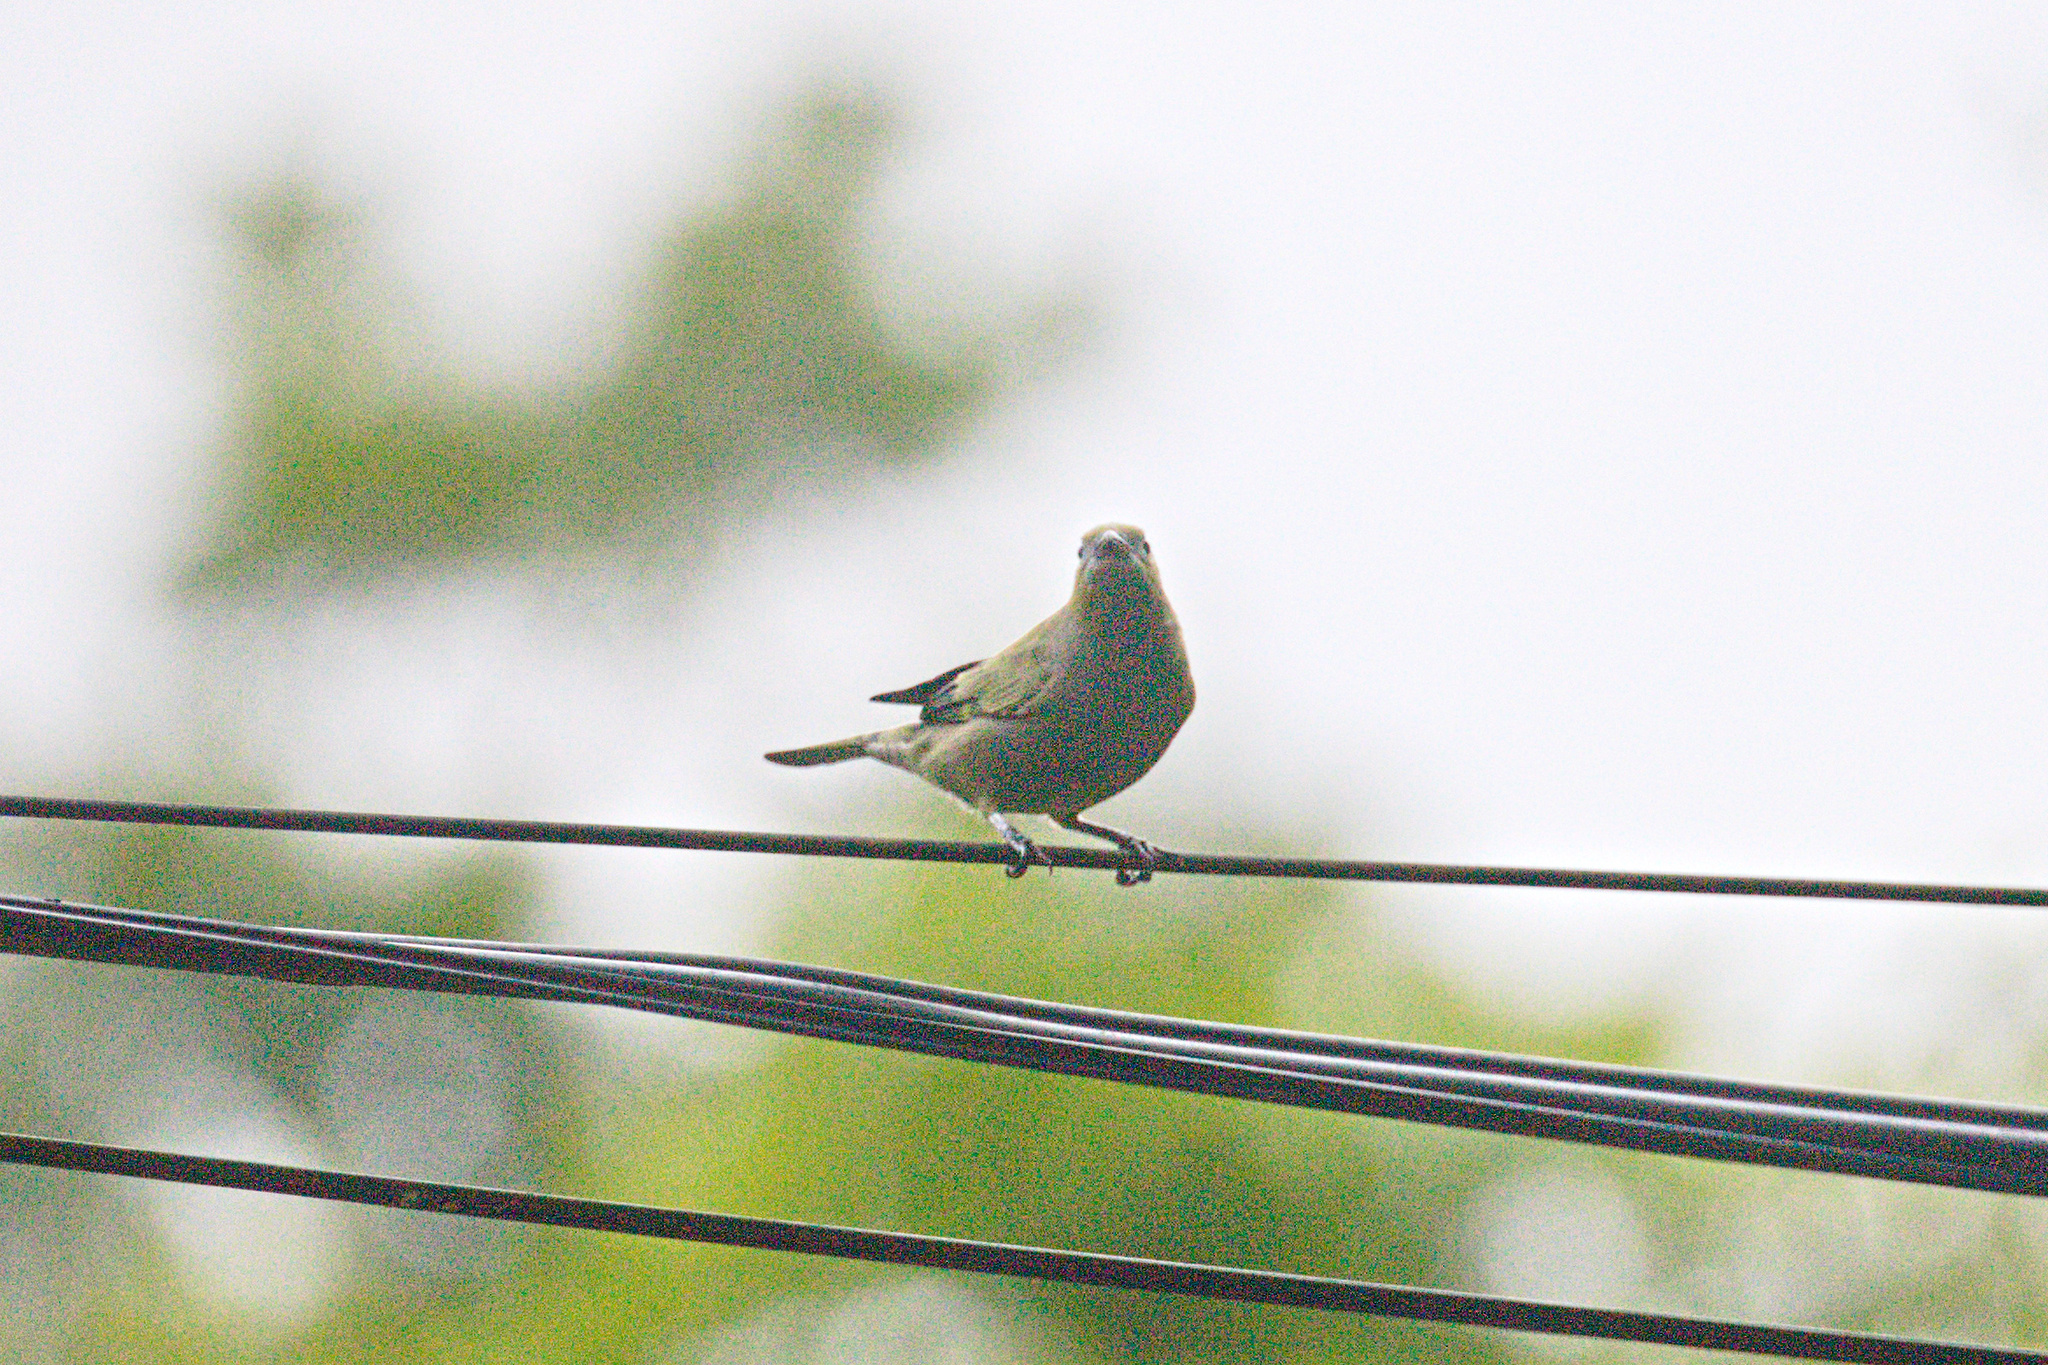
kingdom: Animalia
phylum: Chordata
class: Aves
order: Passeriformes
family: Thraupidae
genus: Thraupis
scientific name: Thraupis palmarum
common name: Palm tanager
